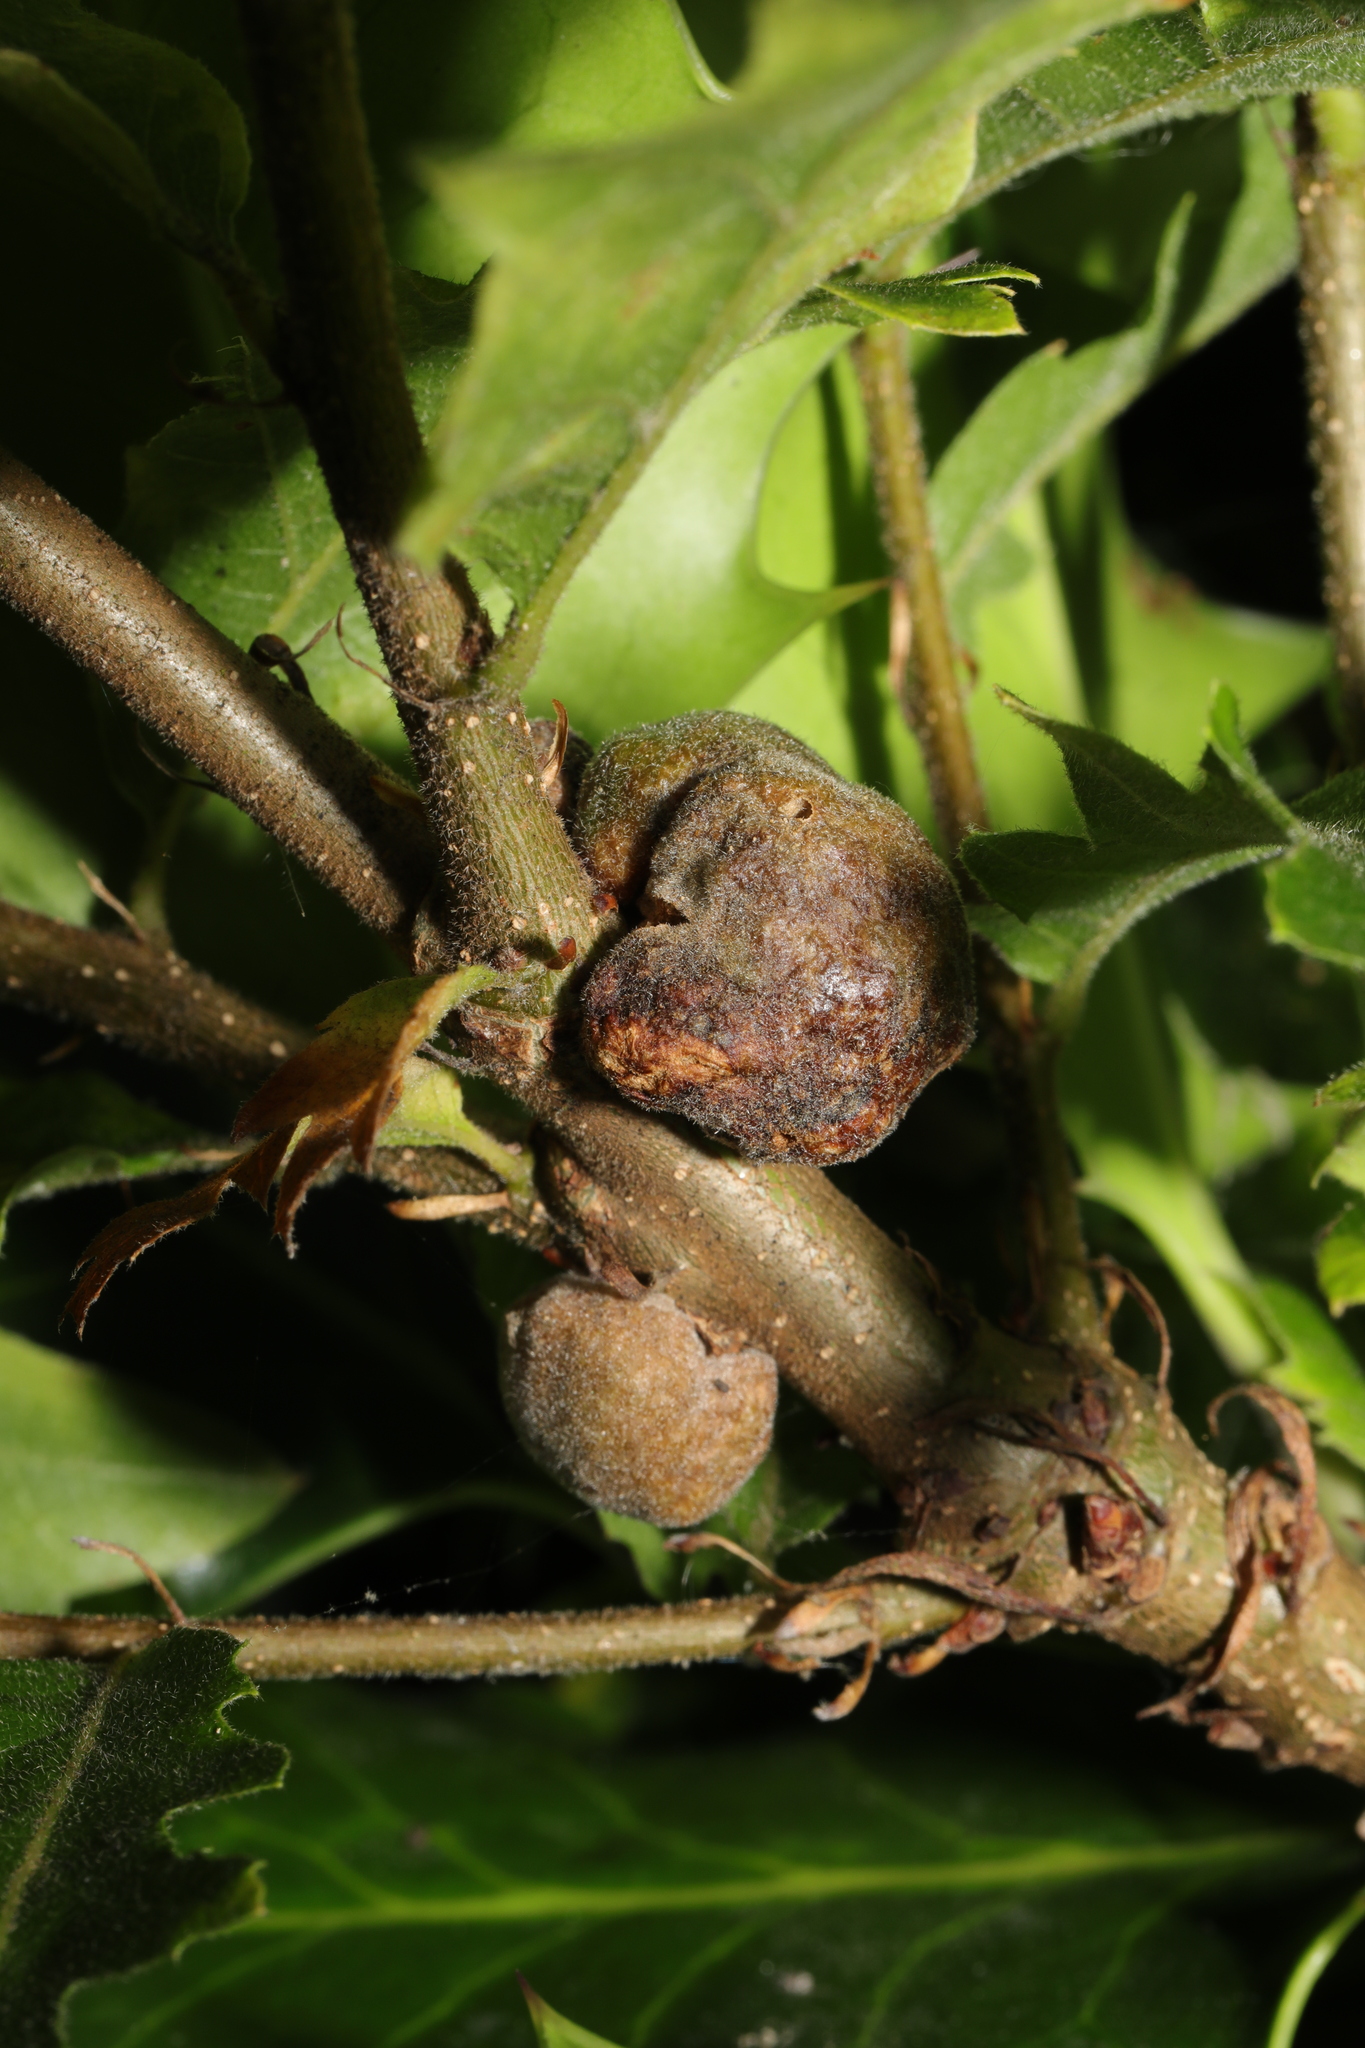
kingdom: Animalia
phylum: Arthropoda
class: Insecta
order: Hymenoptera
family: Cynipidae
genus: Aphelonyx
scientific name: Aphelonyx cerricola
